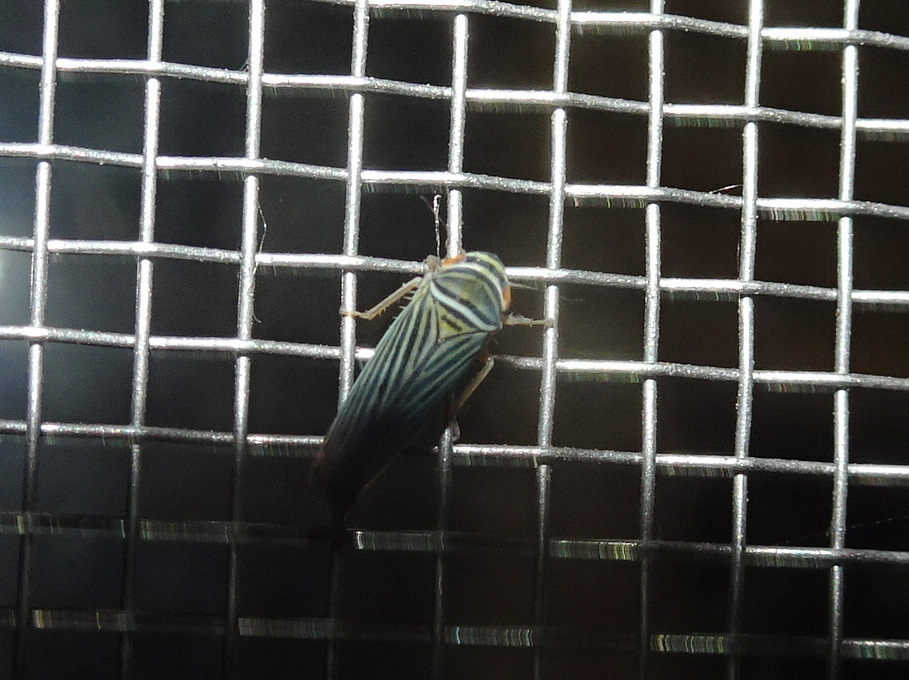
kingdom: Animalia
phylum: Arthropoda
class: Insecta
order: Hemiptera
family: Cicadellidae
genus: Tylozygus
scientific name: Tylozygus bifidus
